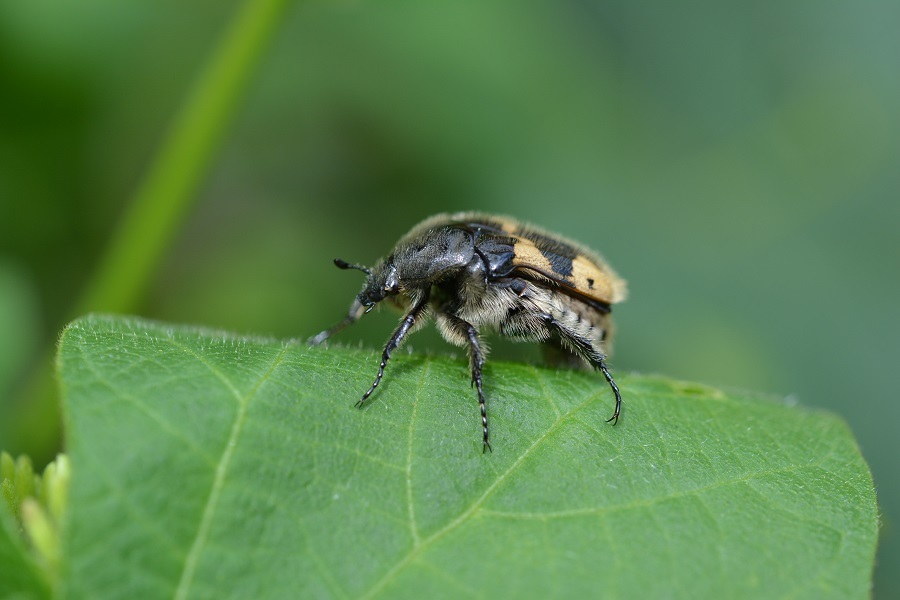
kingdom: Animalia
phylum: Arthropoda
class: Insecta
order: Coleoptera
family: Scarabaeidae
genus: Euphoria
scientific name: Euphoria basalis
